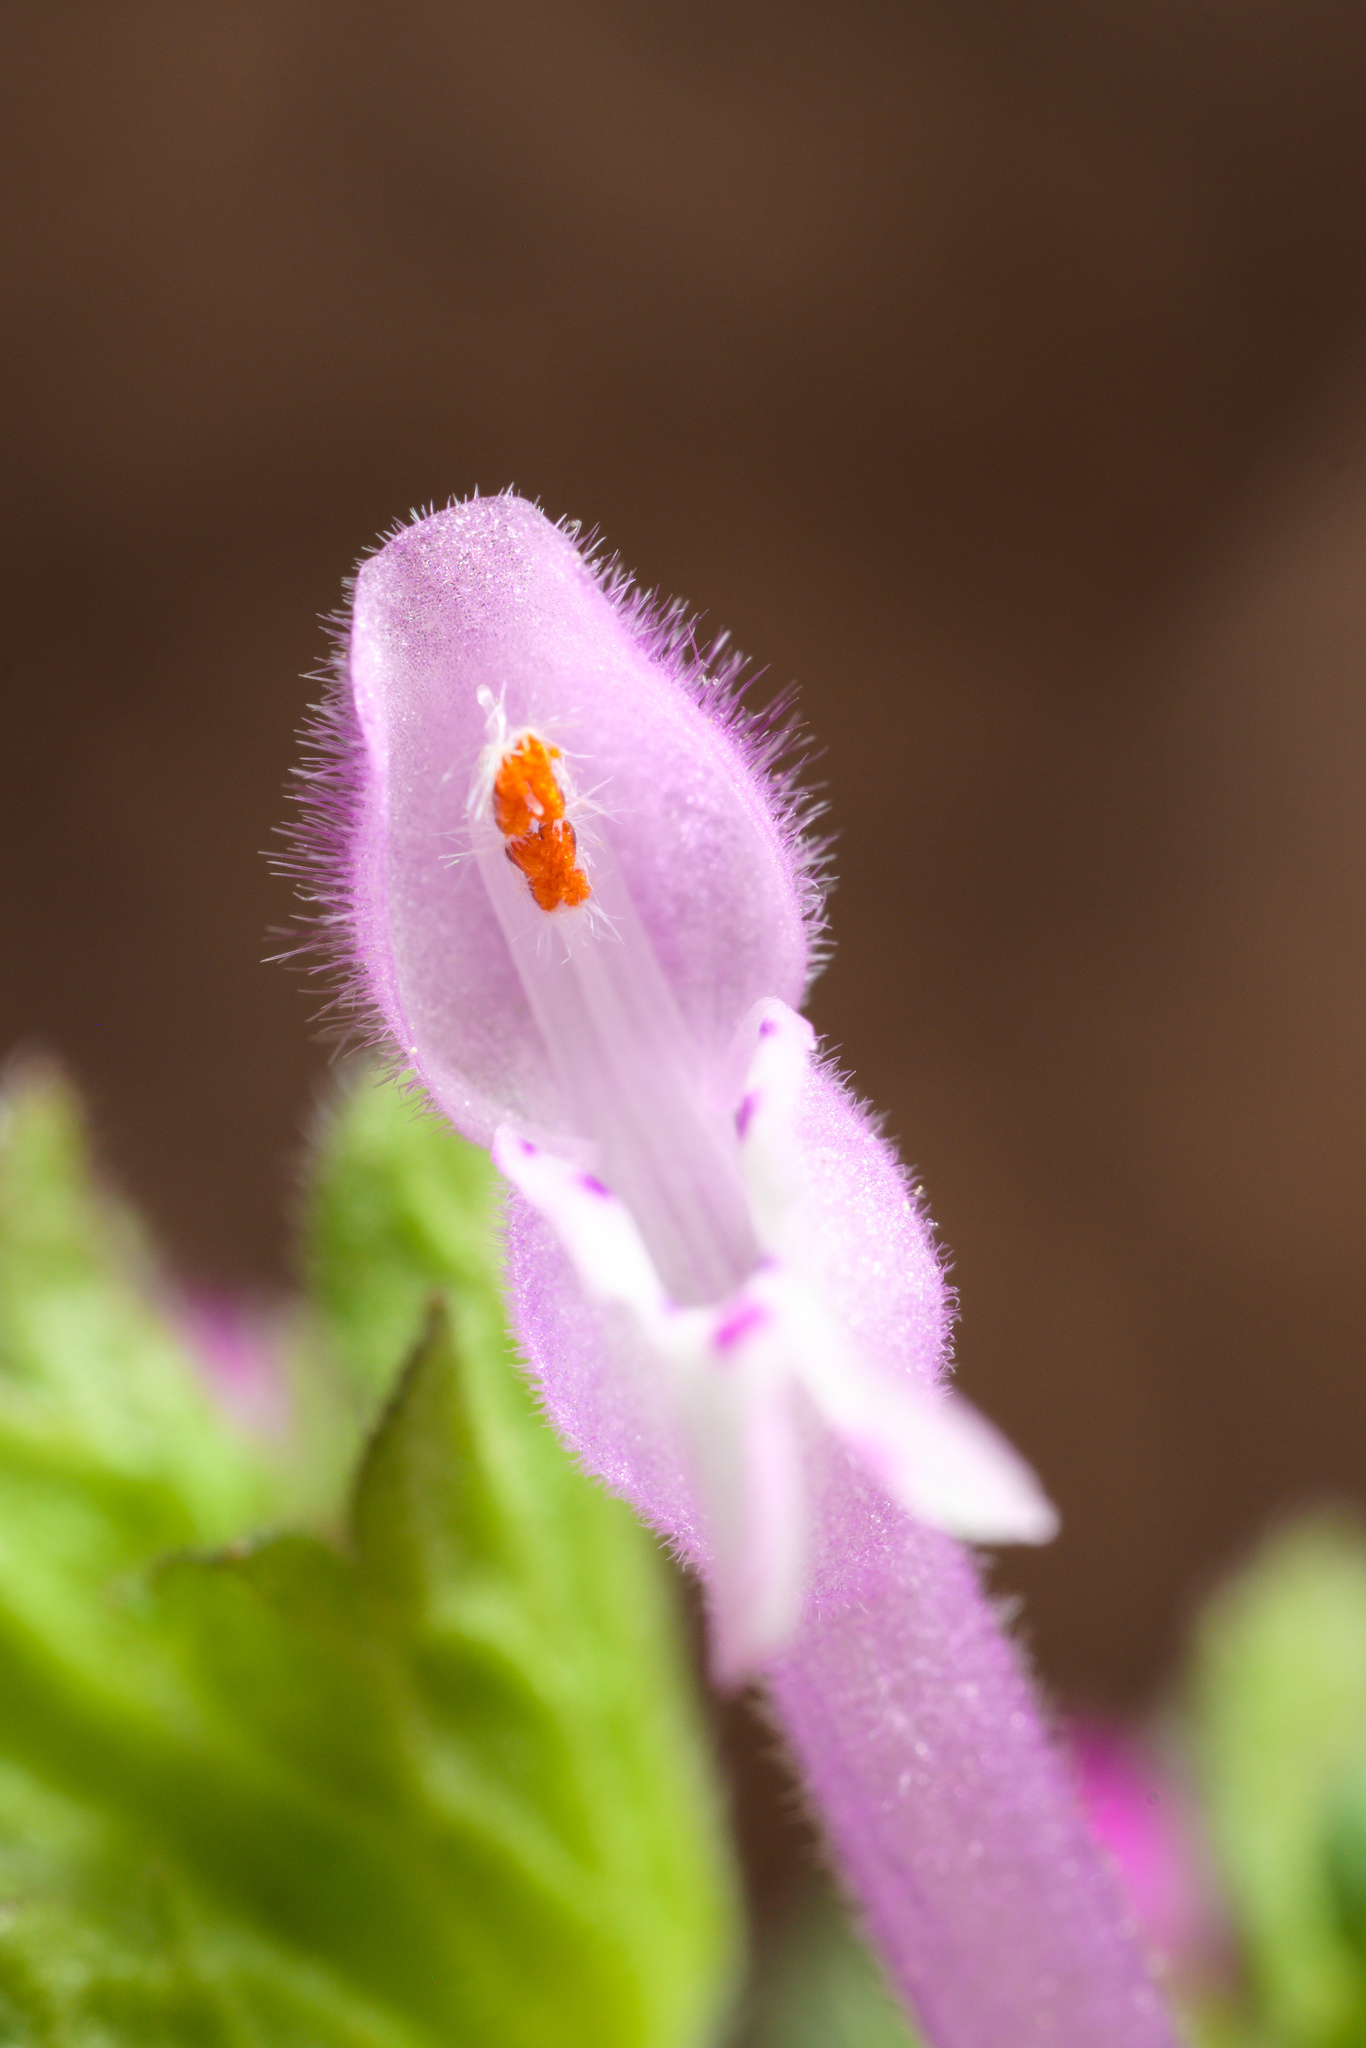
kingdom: Plantae
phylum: Tracheophyta
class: Magnoliopsida
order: Lamiales
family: Lamiaceae
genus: Lamium
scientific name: Lamium amplexicaule
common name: Henbit dead-nettle
